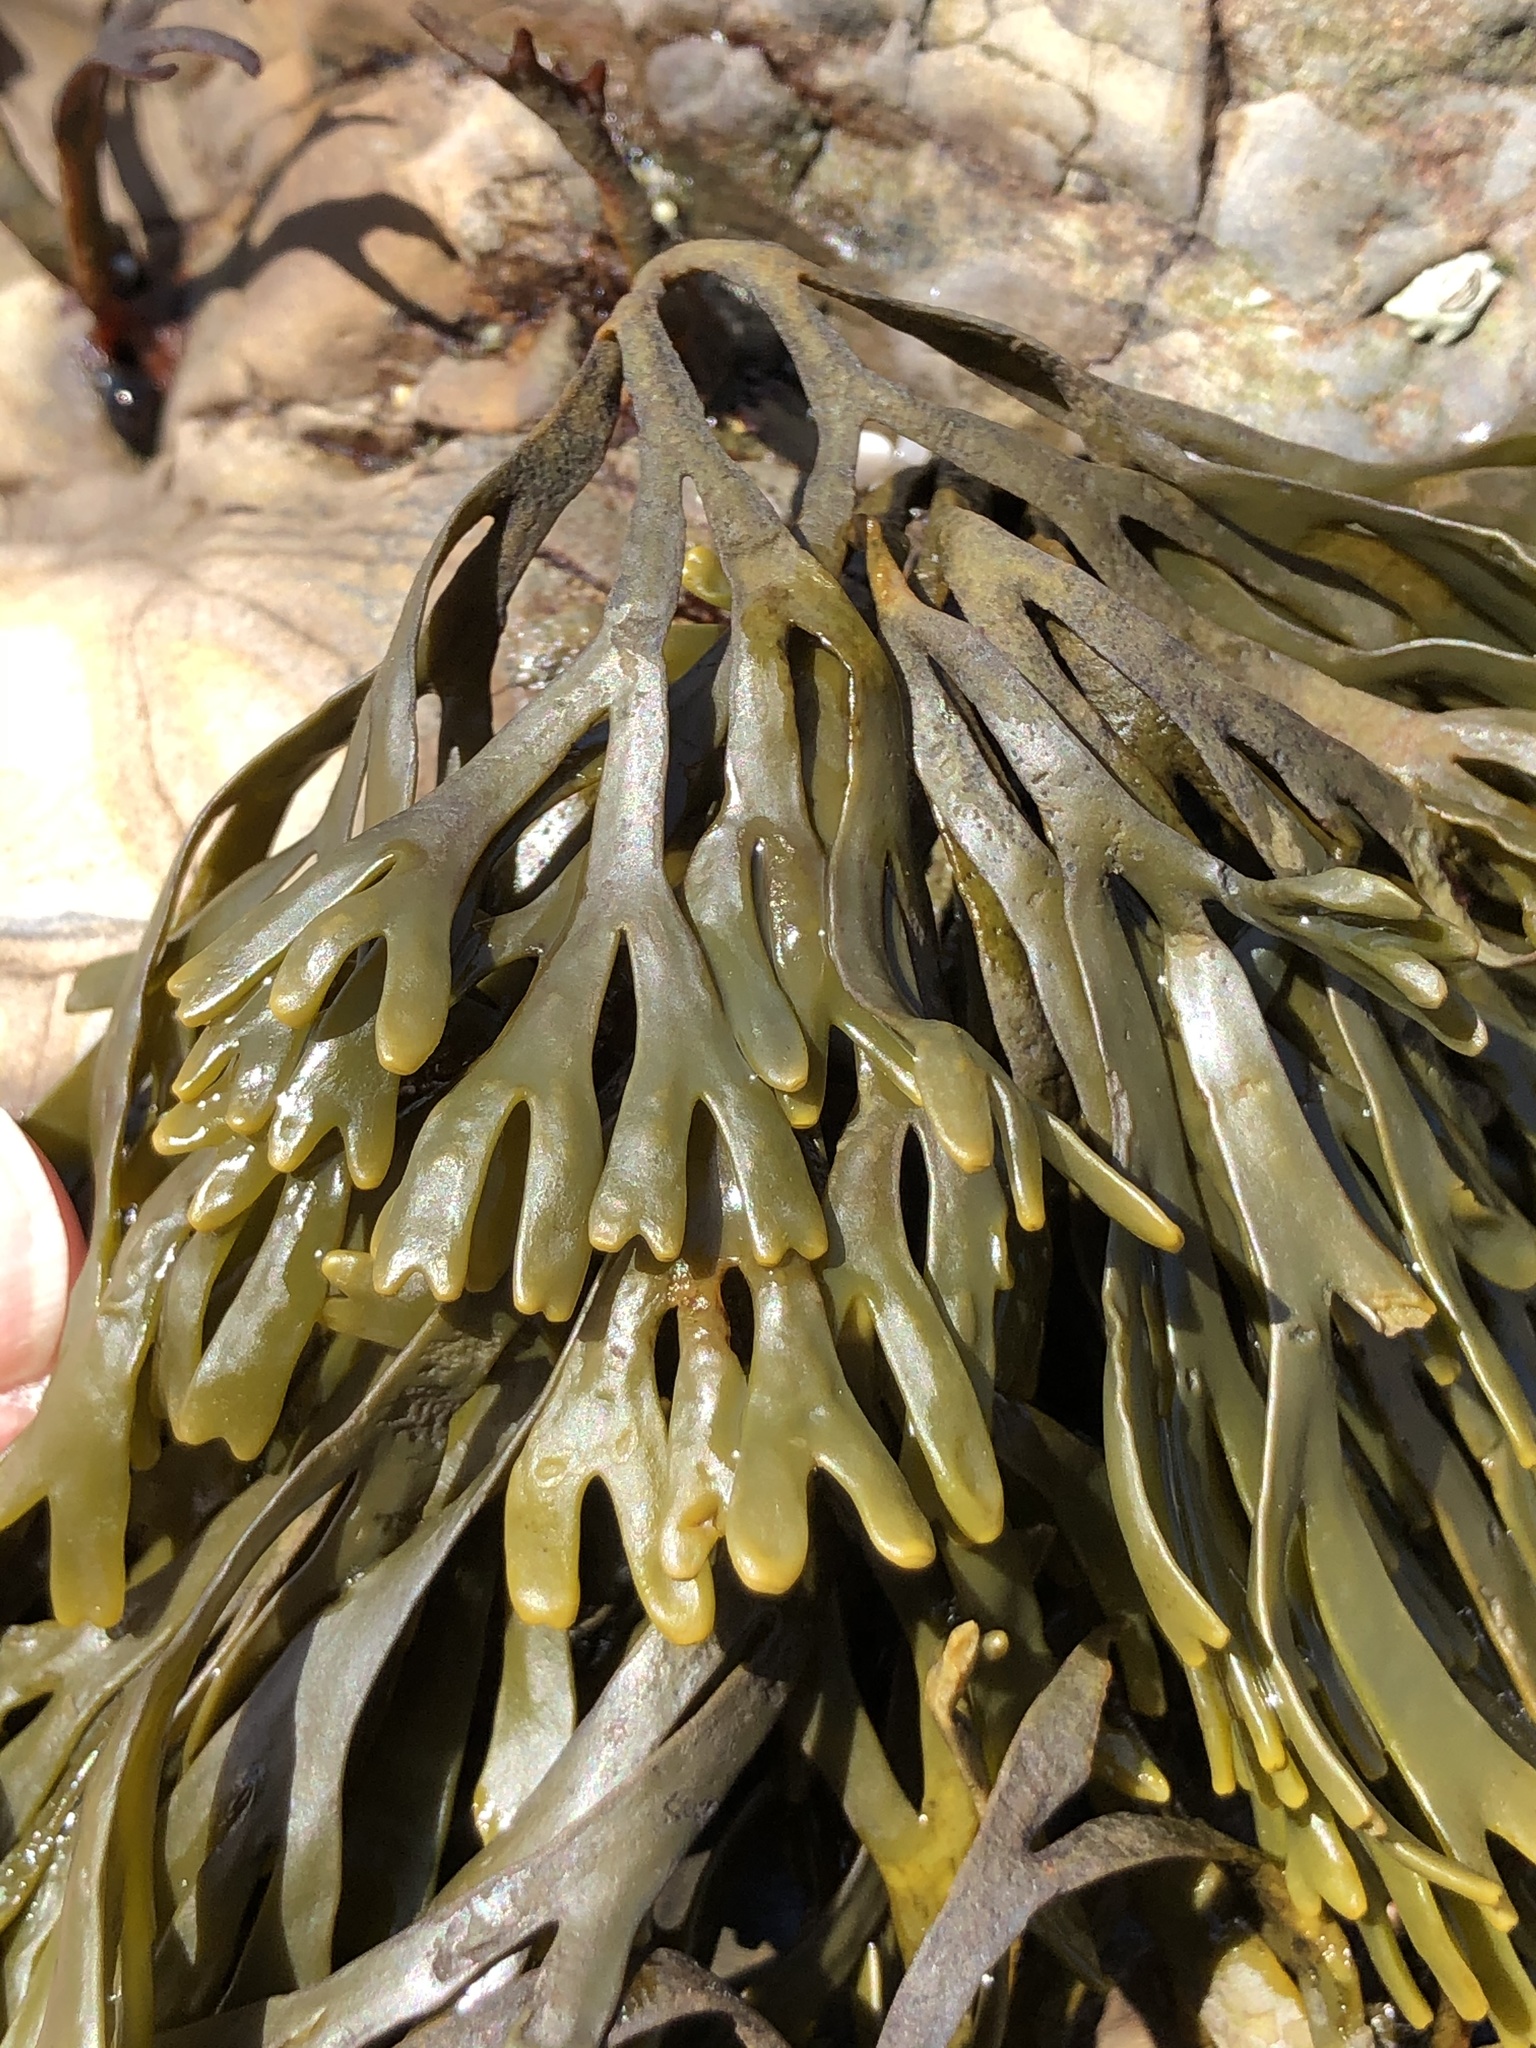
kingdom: Chromista
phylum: Ochrophyta
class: Phaeophyceae
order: Fucales
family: Fucaceae
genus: Pelvetiopsis
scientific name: Pelvetiopsis limitata
